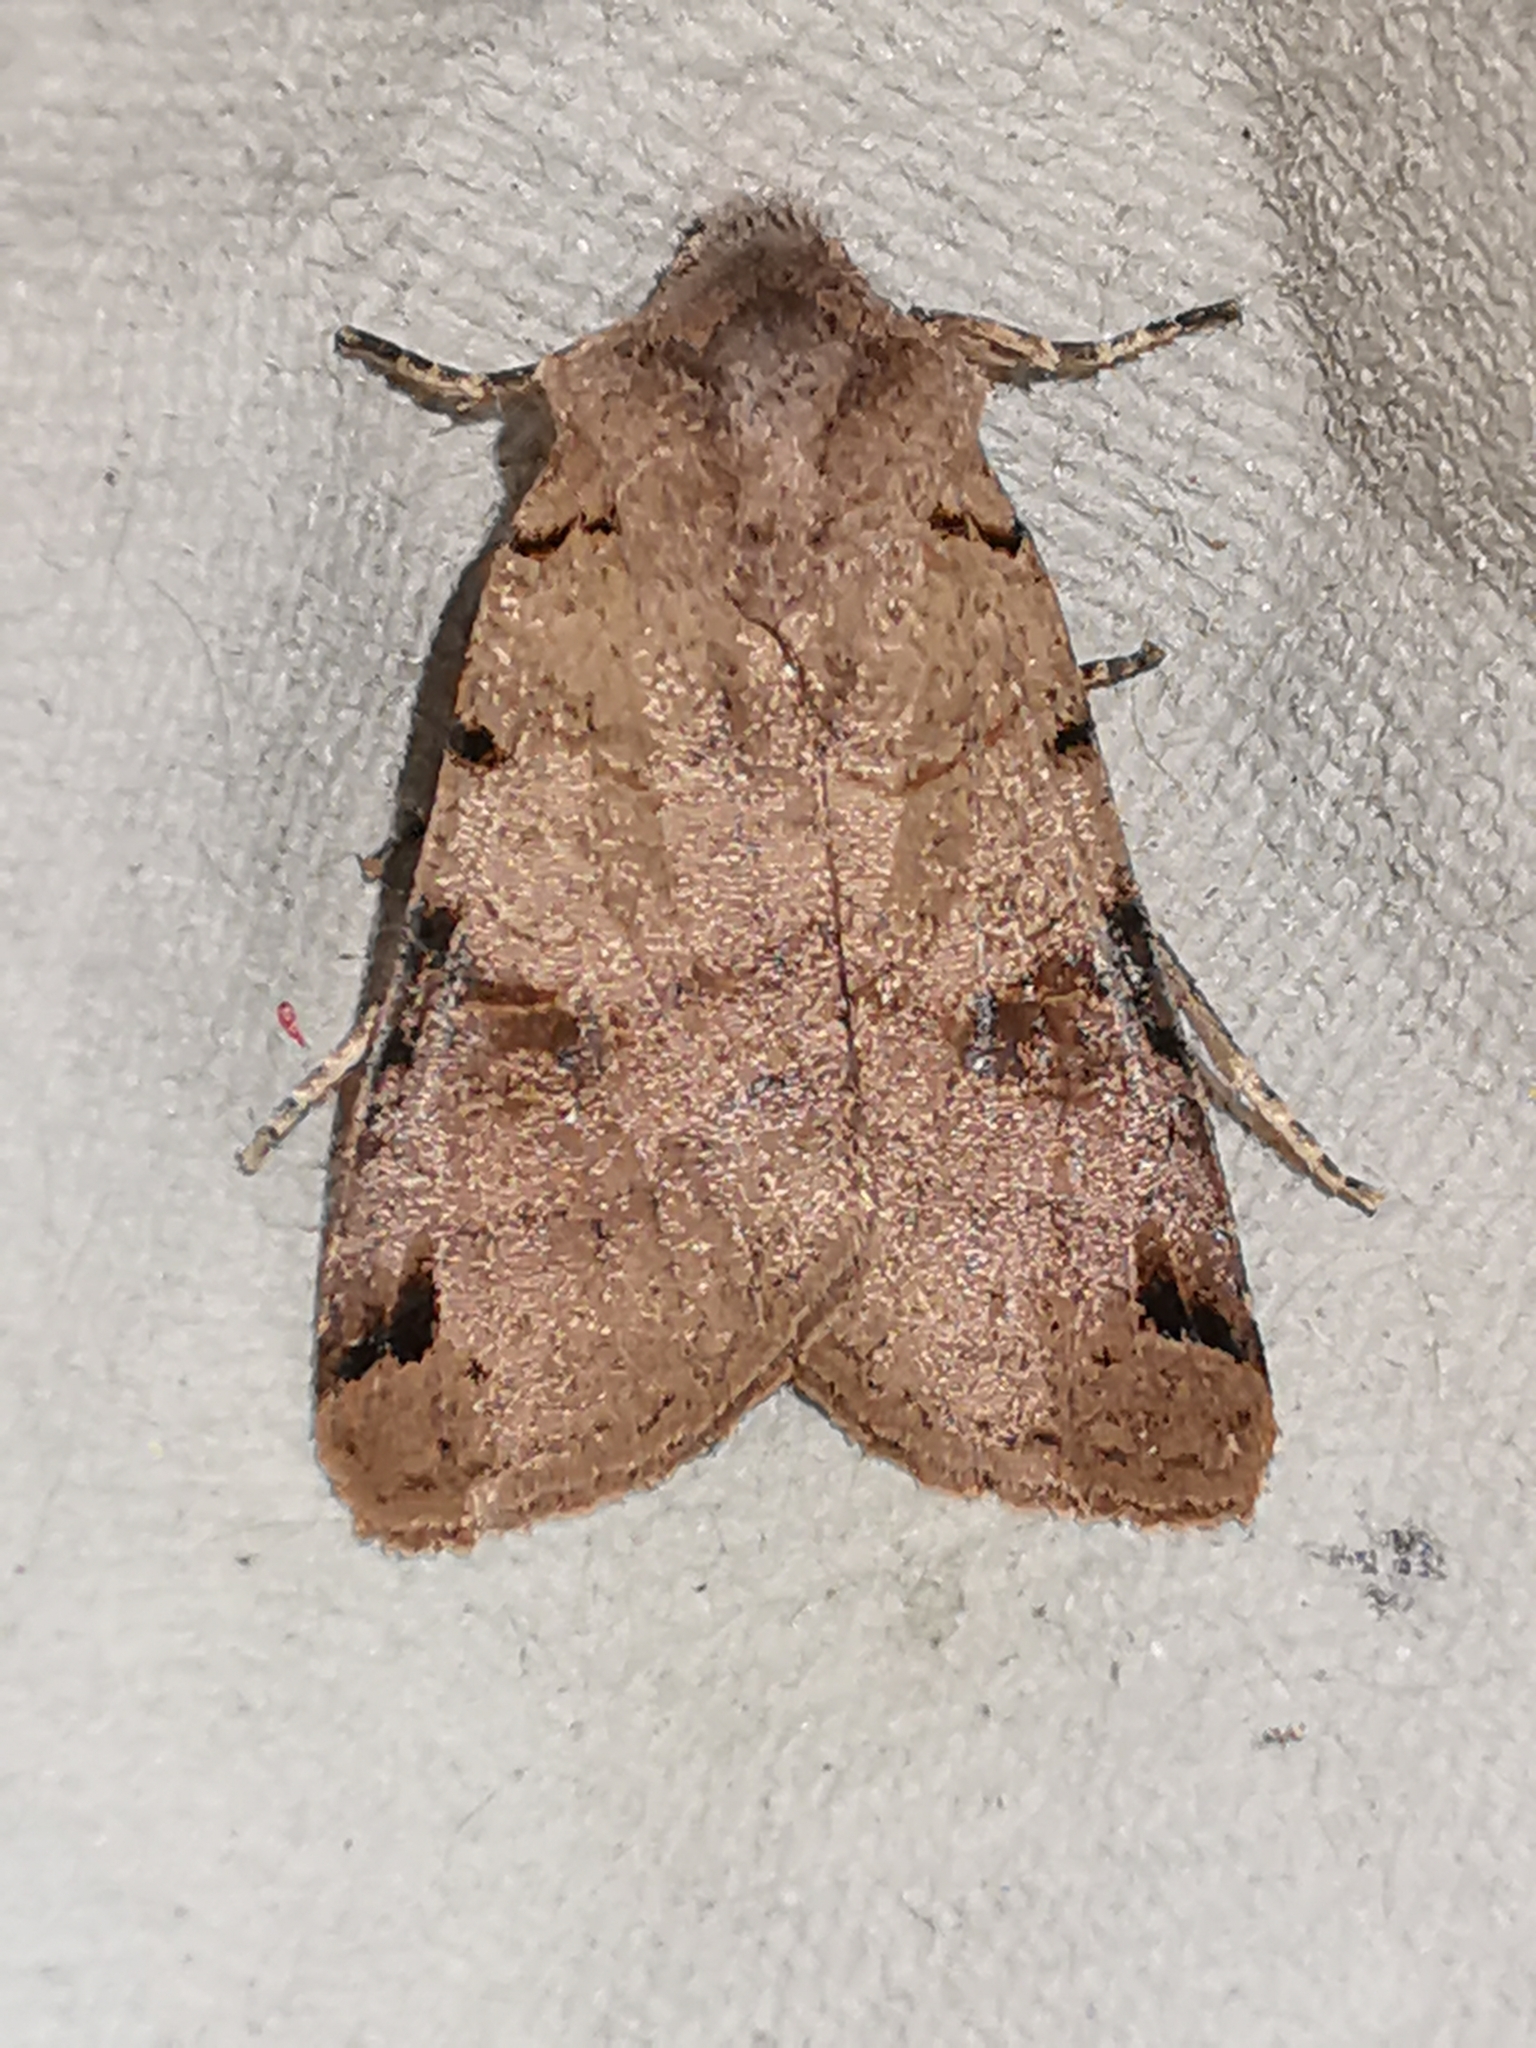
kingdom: Animalia
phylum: Arthropoda
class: Insecta
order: Lepidoptera
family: Noctuidae
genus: Agrochola
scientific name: Agrochola litura
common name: Brown-spot pinion
